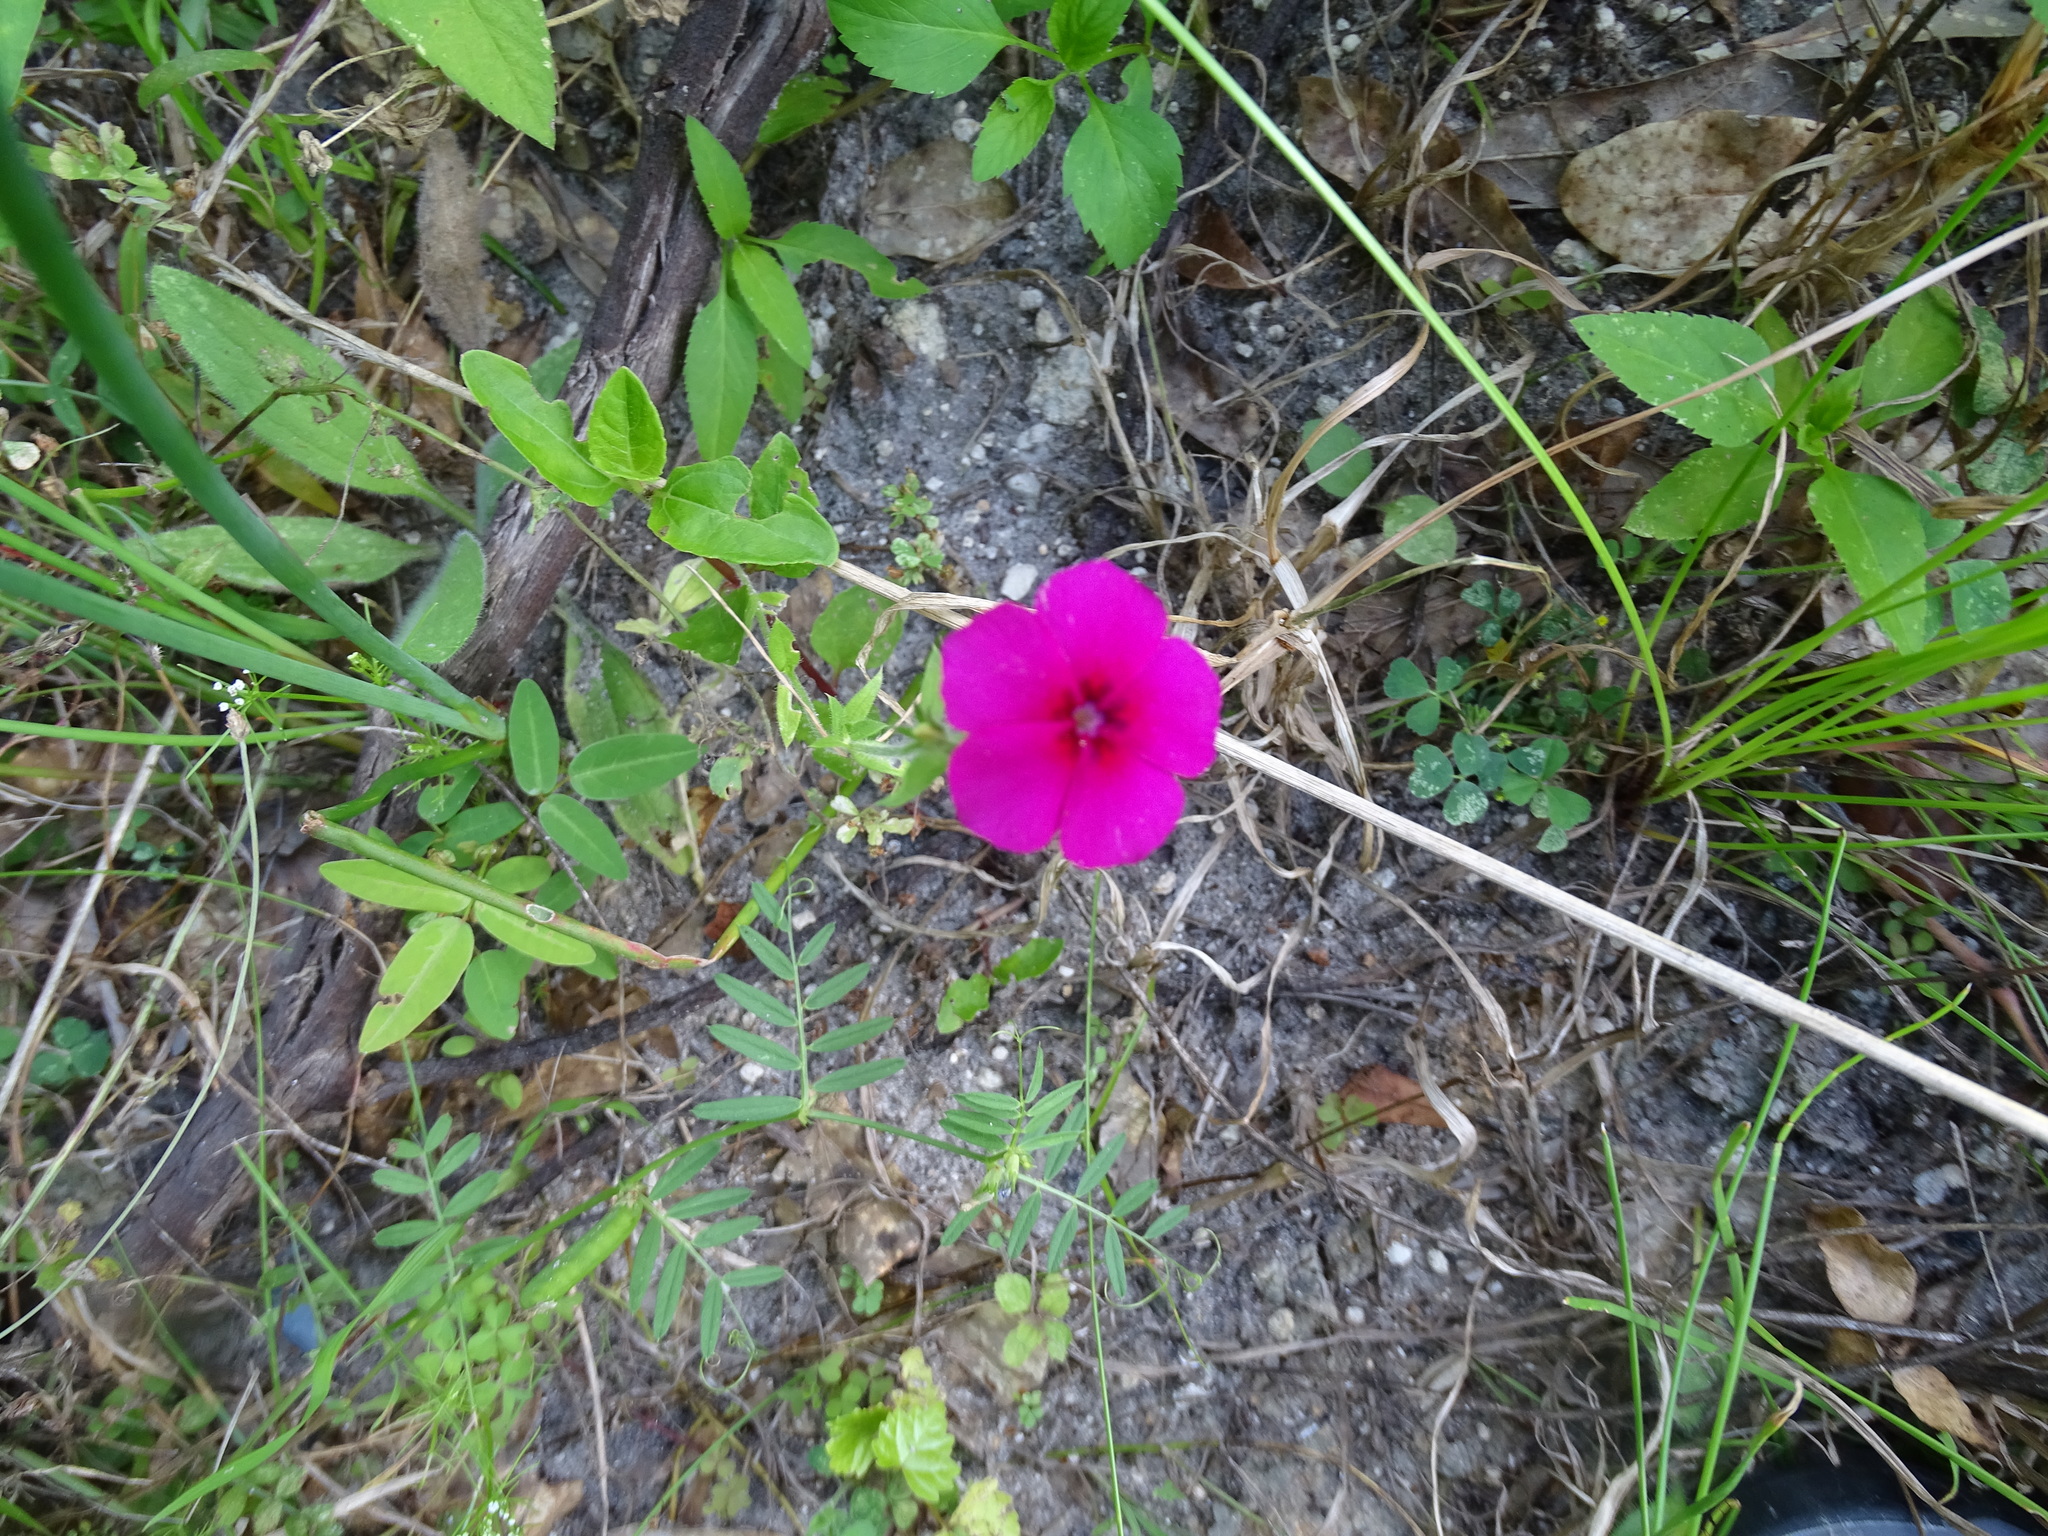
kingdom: Plantae
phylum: Tracheophyta
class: Magnoliopsida
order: Ericales
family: Polemoniaceae
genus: Phlox
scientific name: Phlox drummondii
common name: Drummond's phlox
